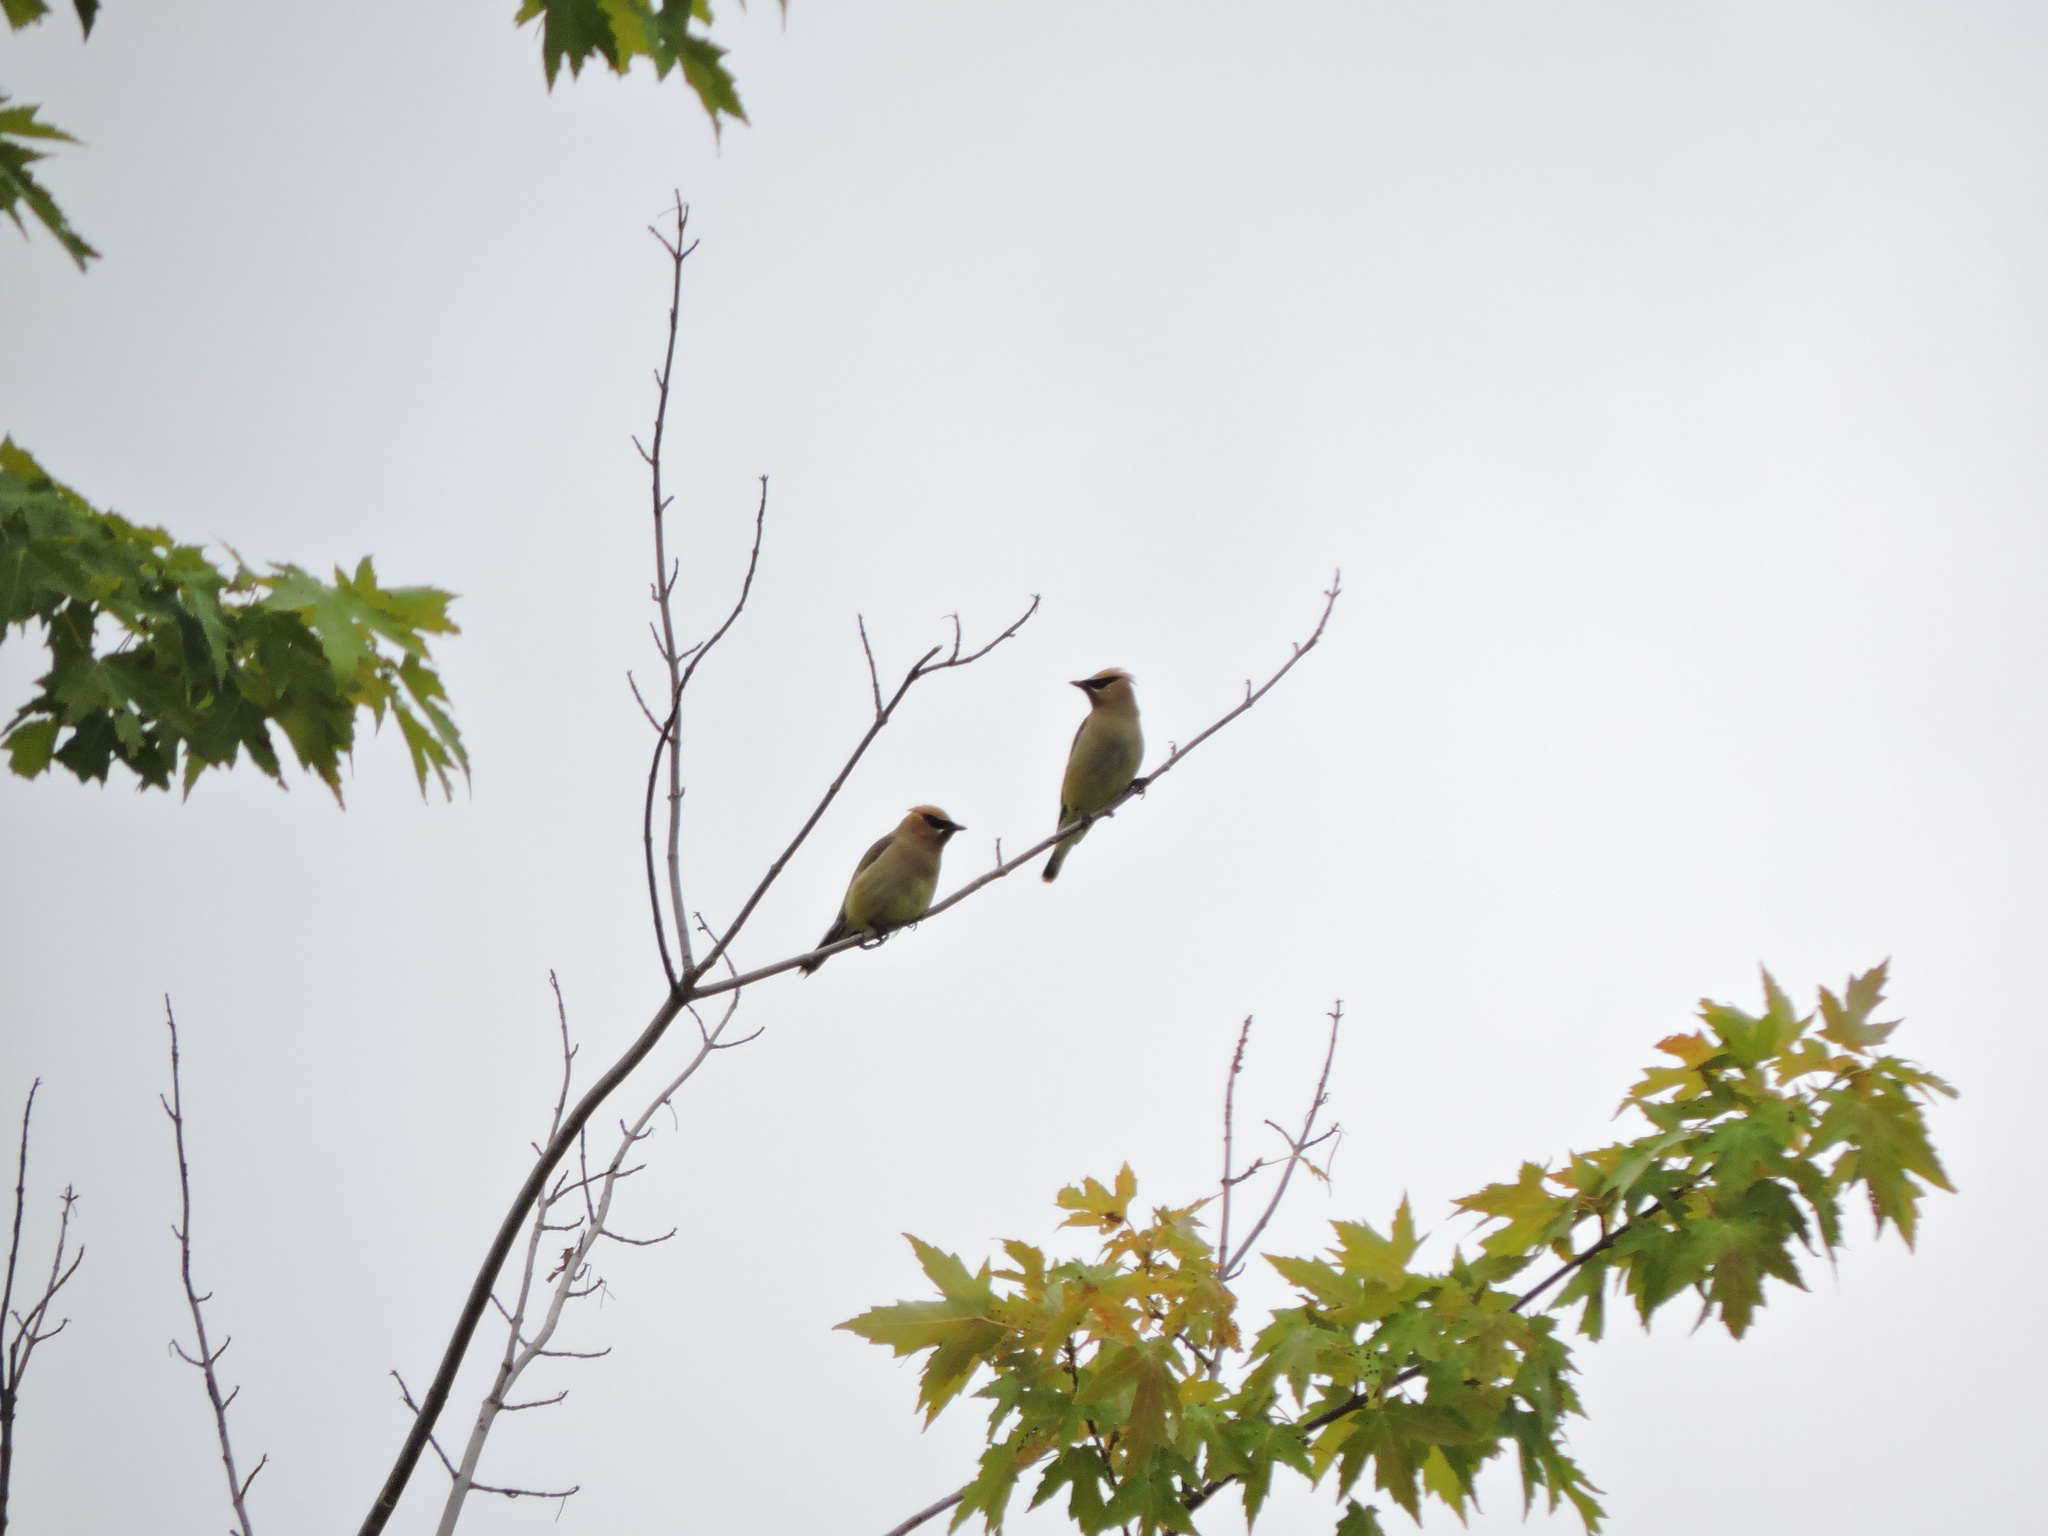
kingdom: Animalia
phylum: Chordata
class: Aves
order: Passeriformes
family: Bombycillidae
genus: Bombycilla
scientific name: Bombycilla cedrorum
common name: Cedar waxwing
